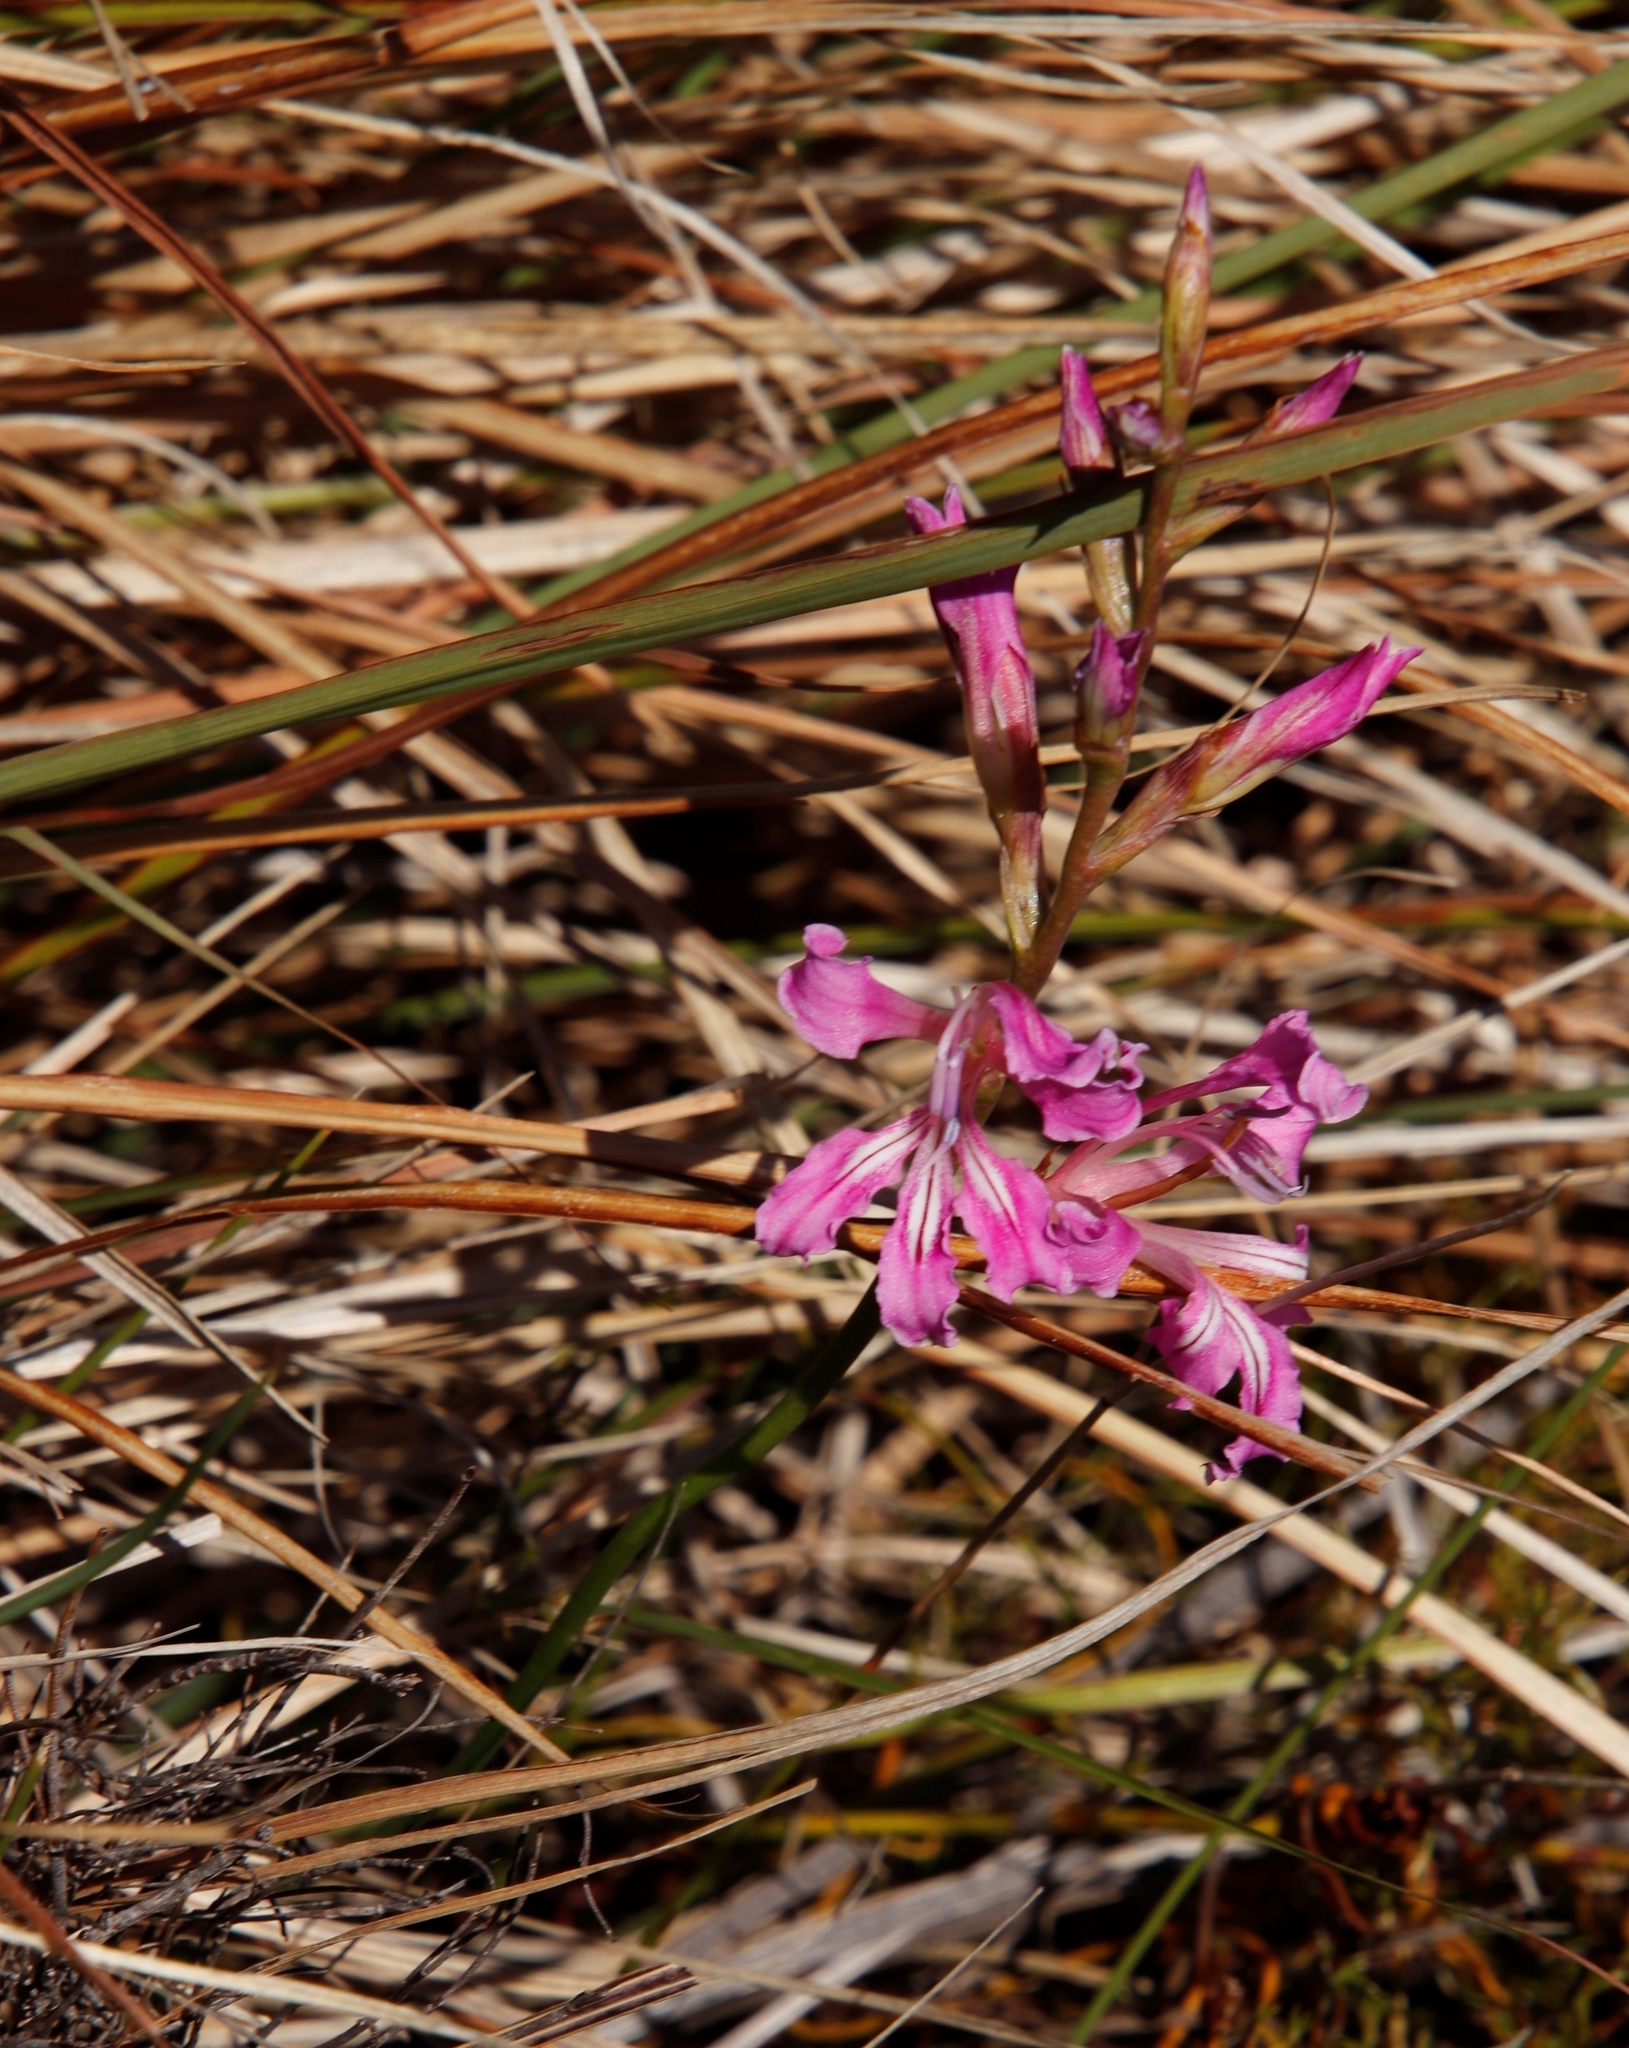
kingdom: Plantae
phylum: Tracheophyta
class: Liliopsida
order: Asparagales
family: Iridaceae
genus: Tritoniopsis
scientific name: Tritoniopsis lata
